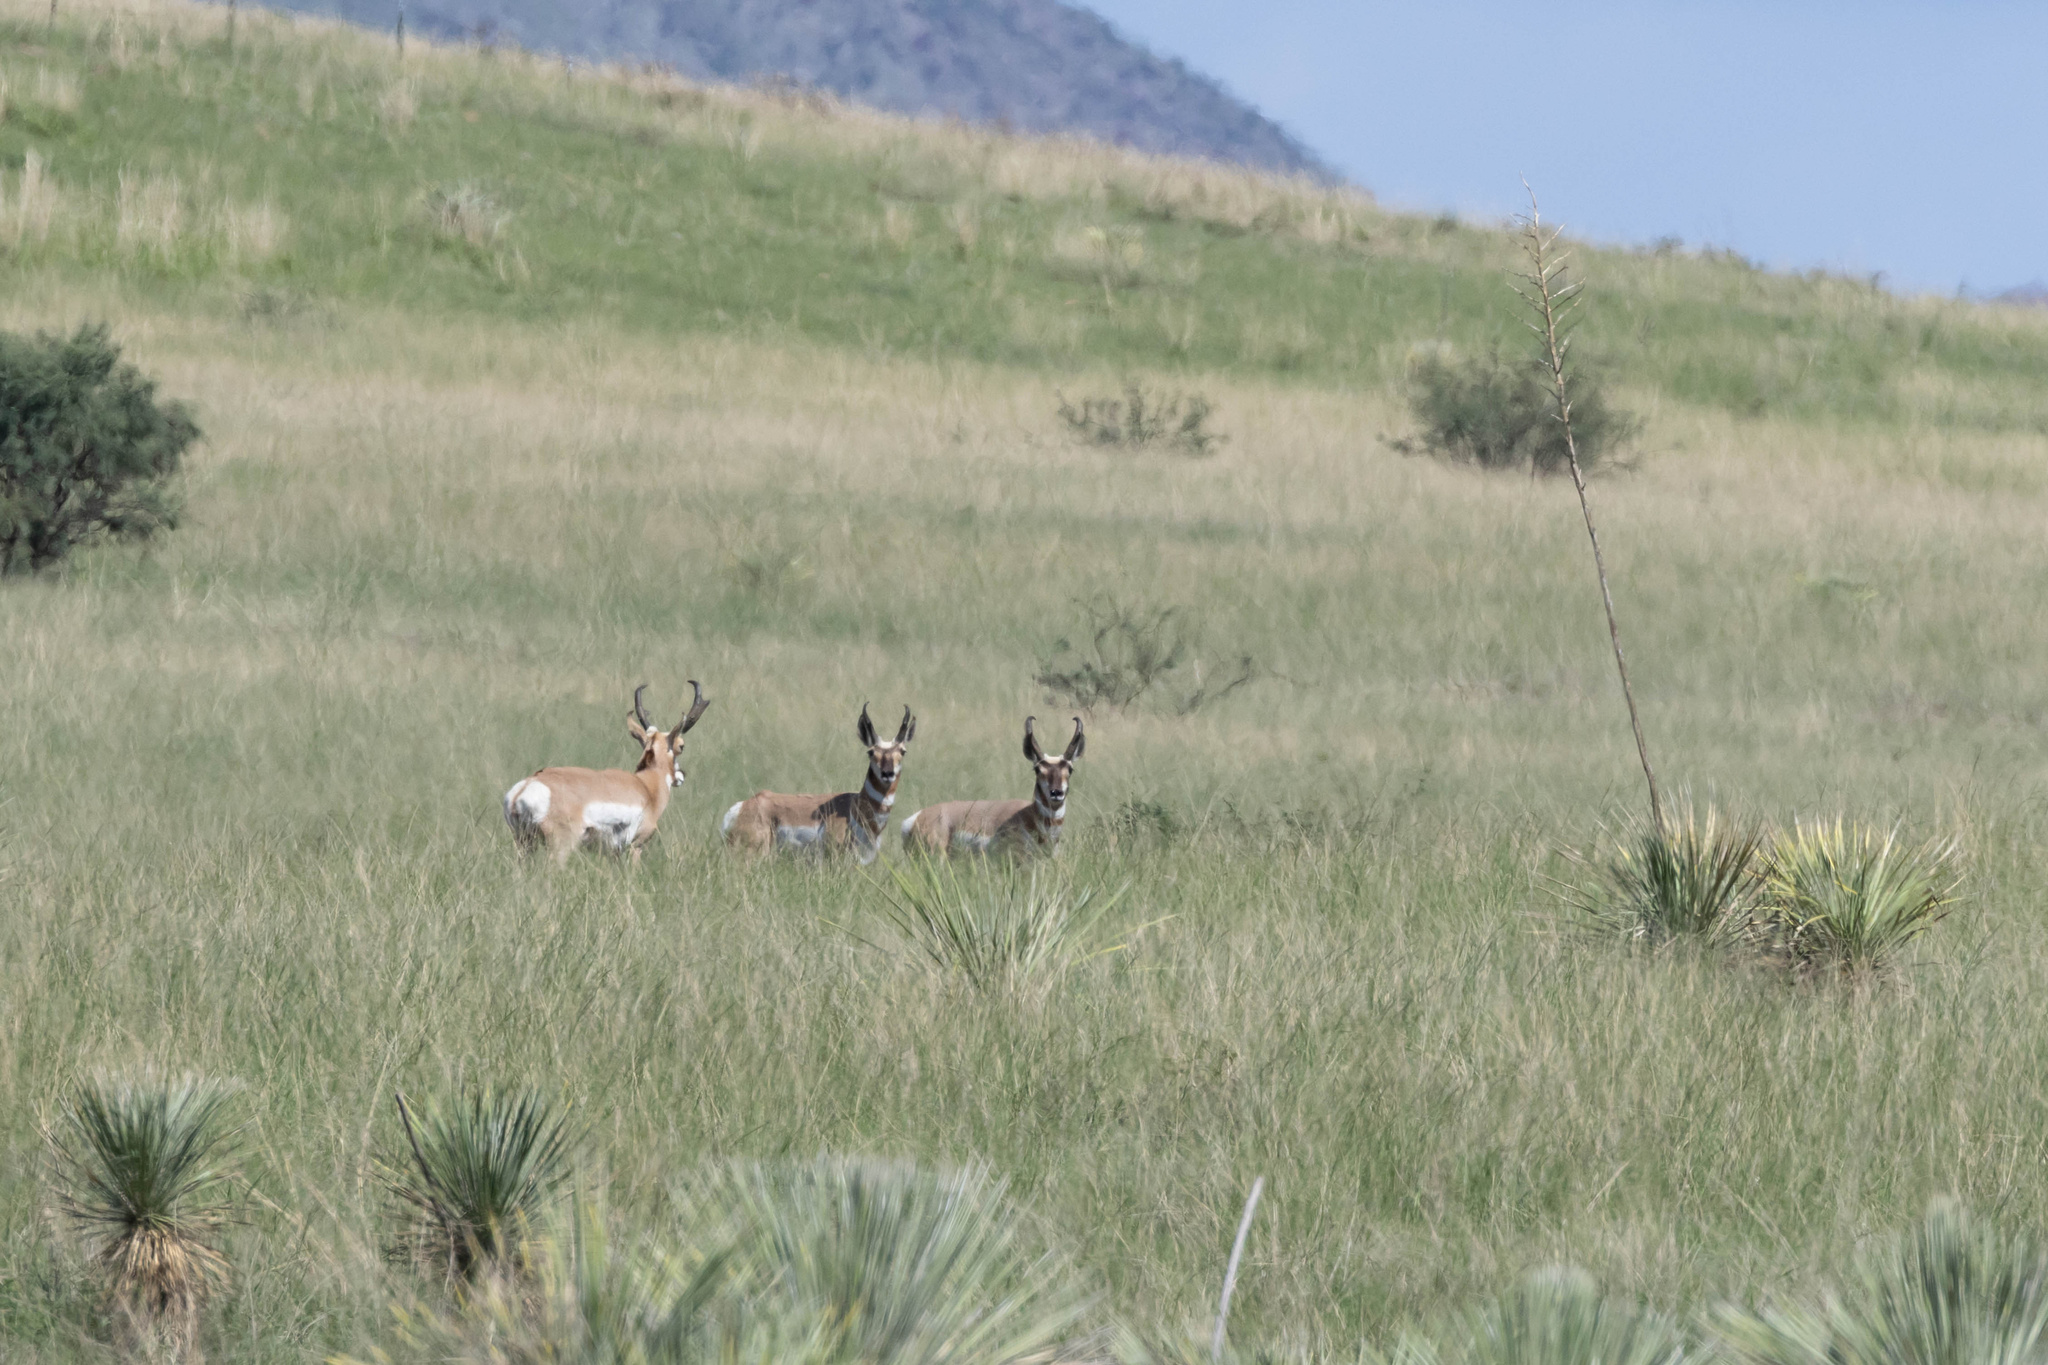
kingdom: Animalia
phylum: Chordata
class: Mammalia
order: Artiodactyla
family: Antilocapridae
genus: Antilocapra
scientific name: Antilocapra americana
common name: Pronghorn
